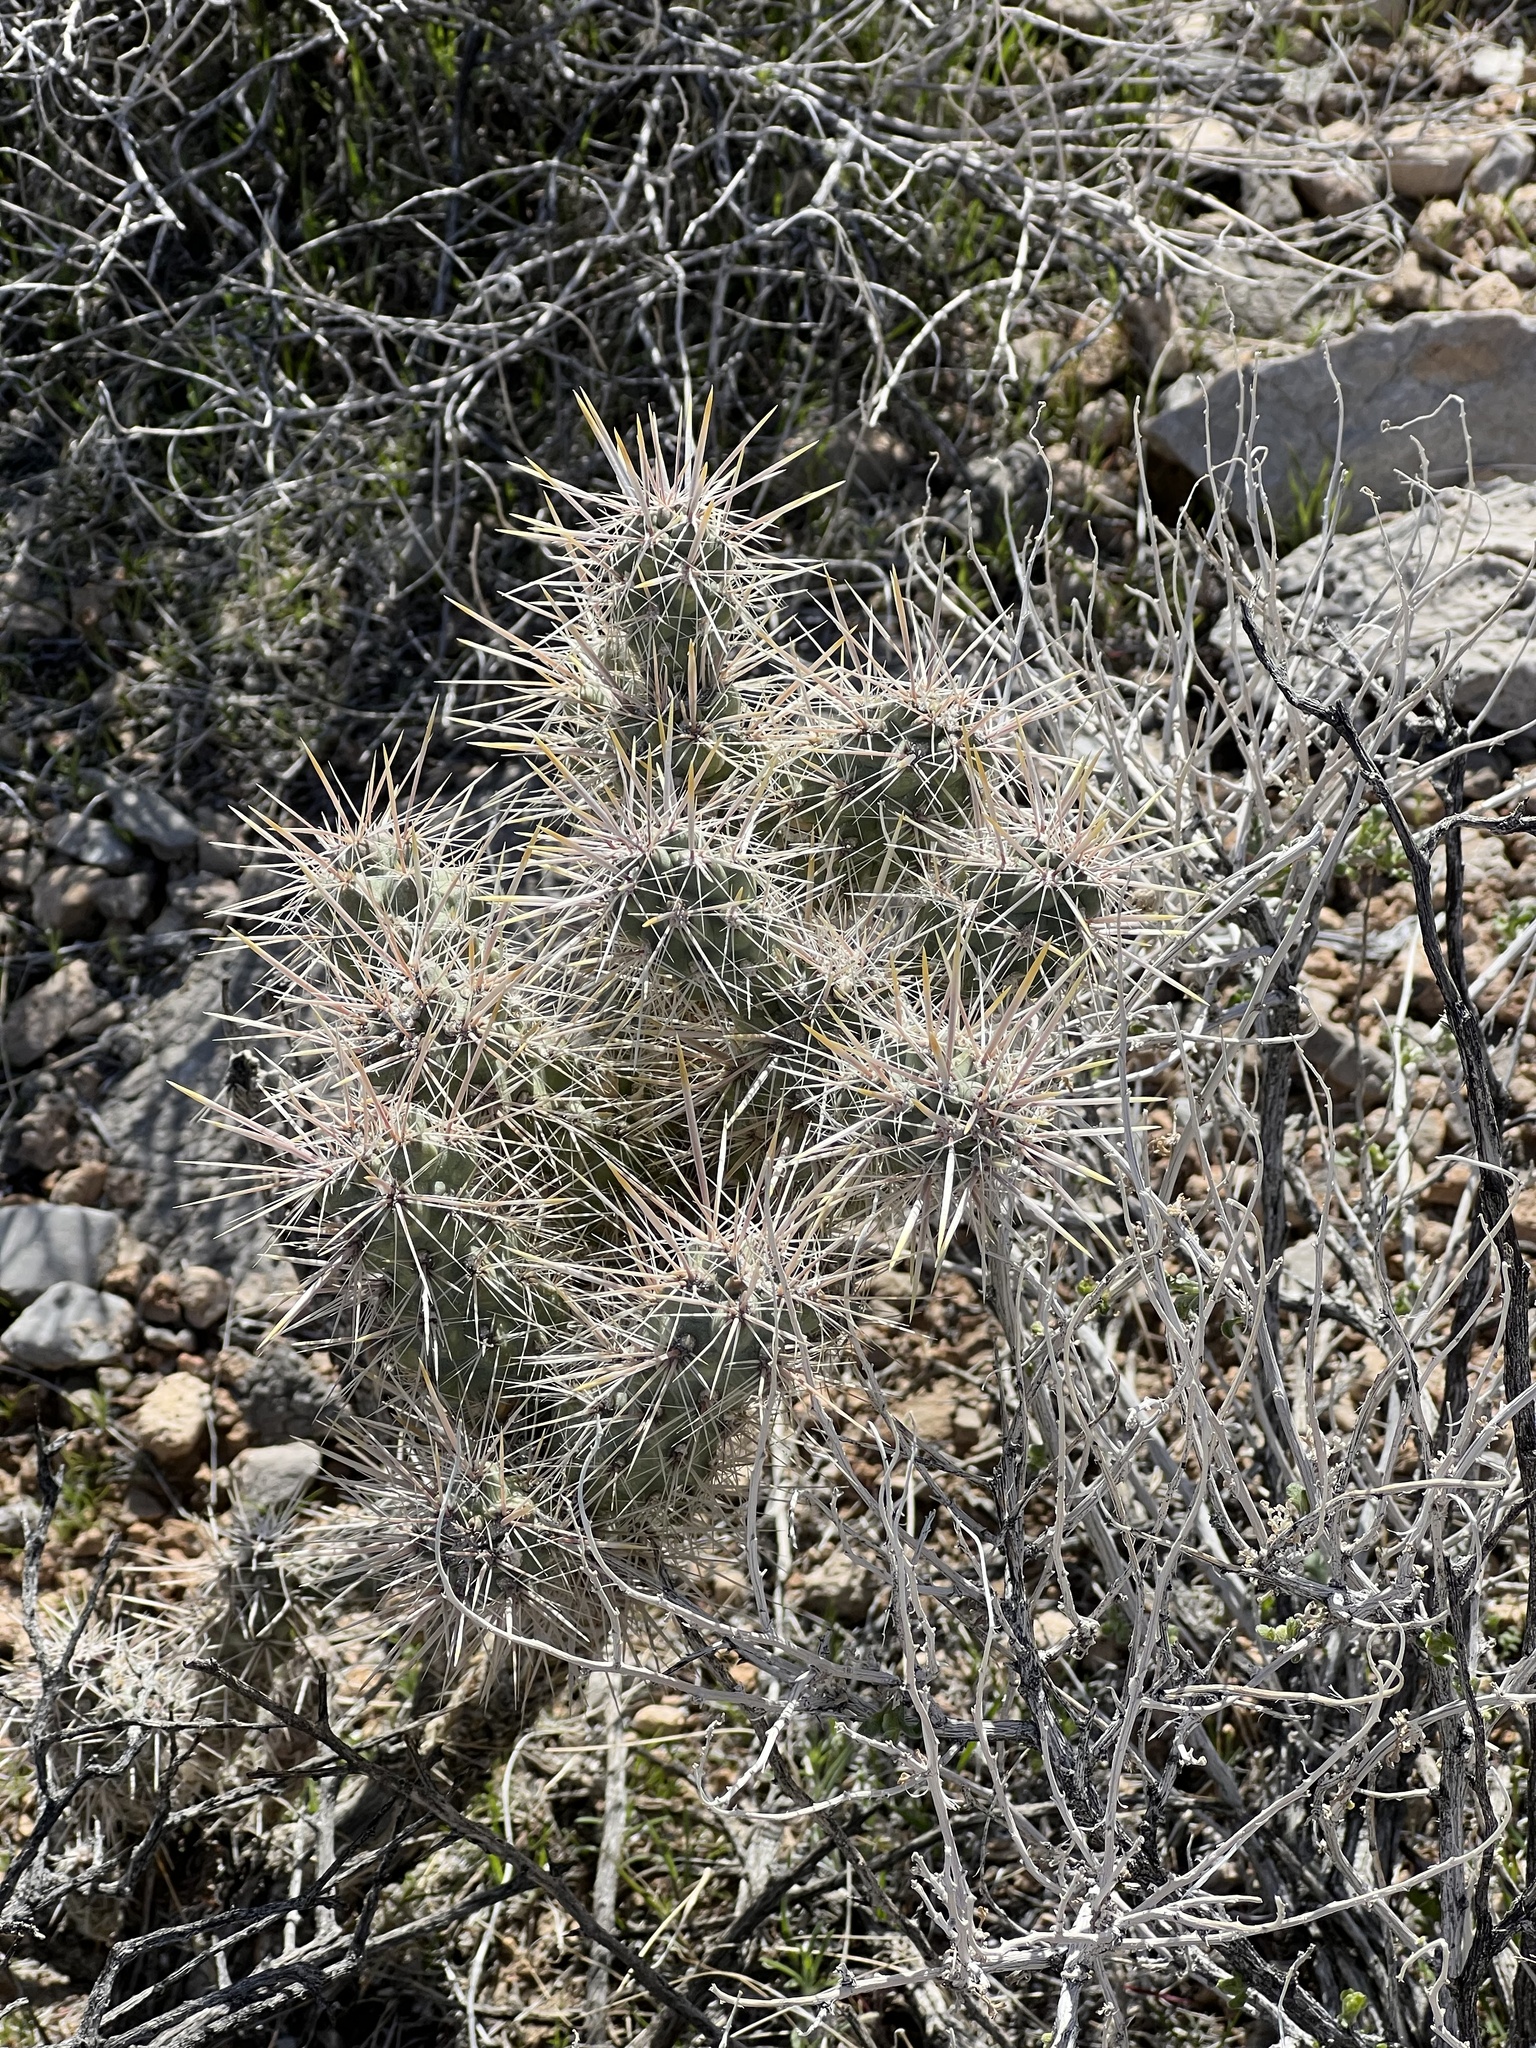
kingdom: Plantae
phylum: Tracheophyta
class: Magnoliopsida
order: Caryophyllales
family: Cactaceae
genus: Cylindropuntia
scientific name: Cylindropuntia echinocarpa
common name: Ground cholla
